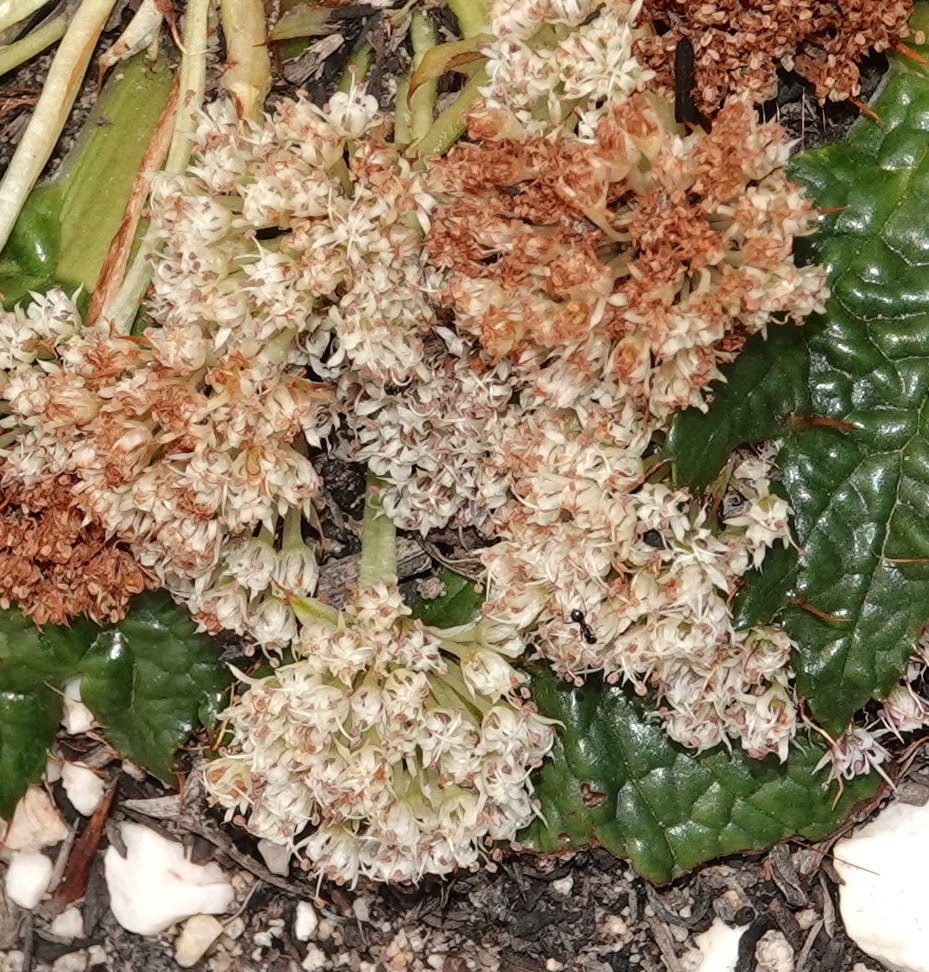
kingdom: Plantae
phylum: Tracheophyta
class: Magnoliopsida
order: Apiales
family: Apiaceae
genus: Arctopus
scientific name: Arctopus echinatus
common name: Platdoring
